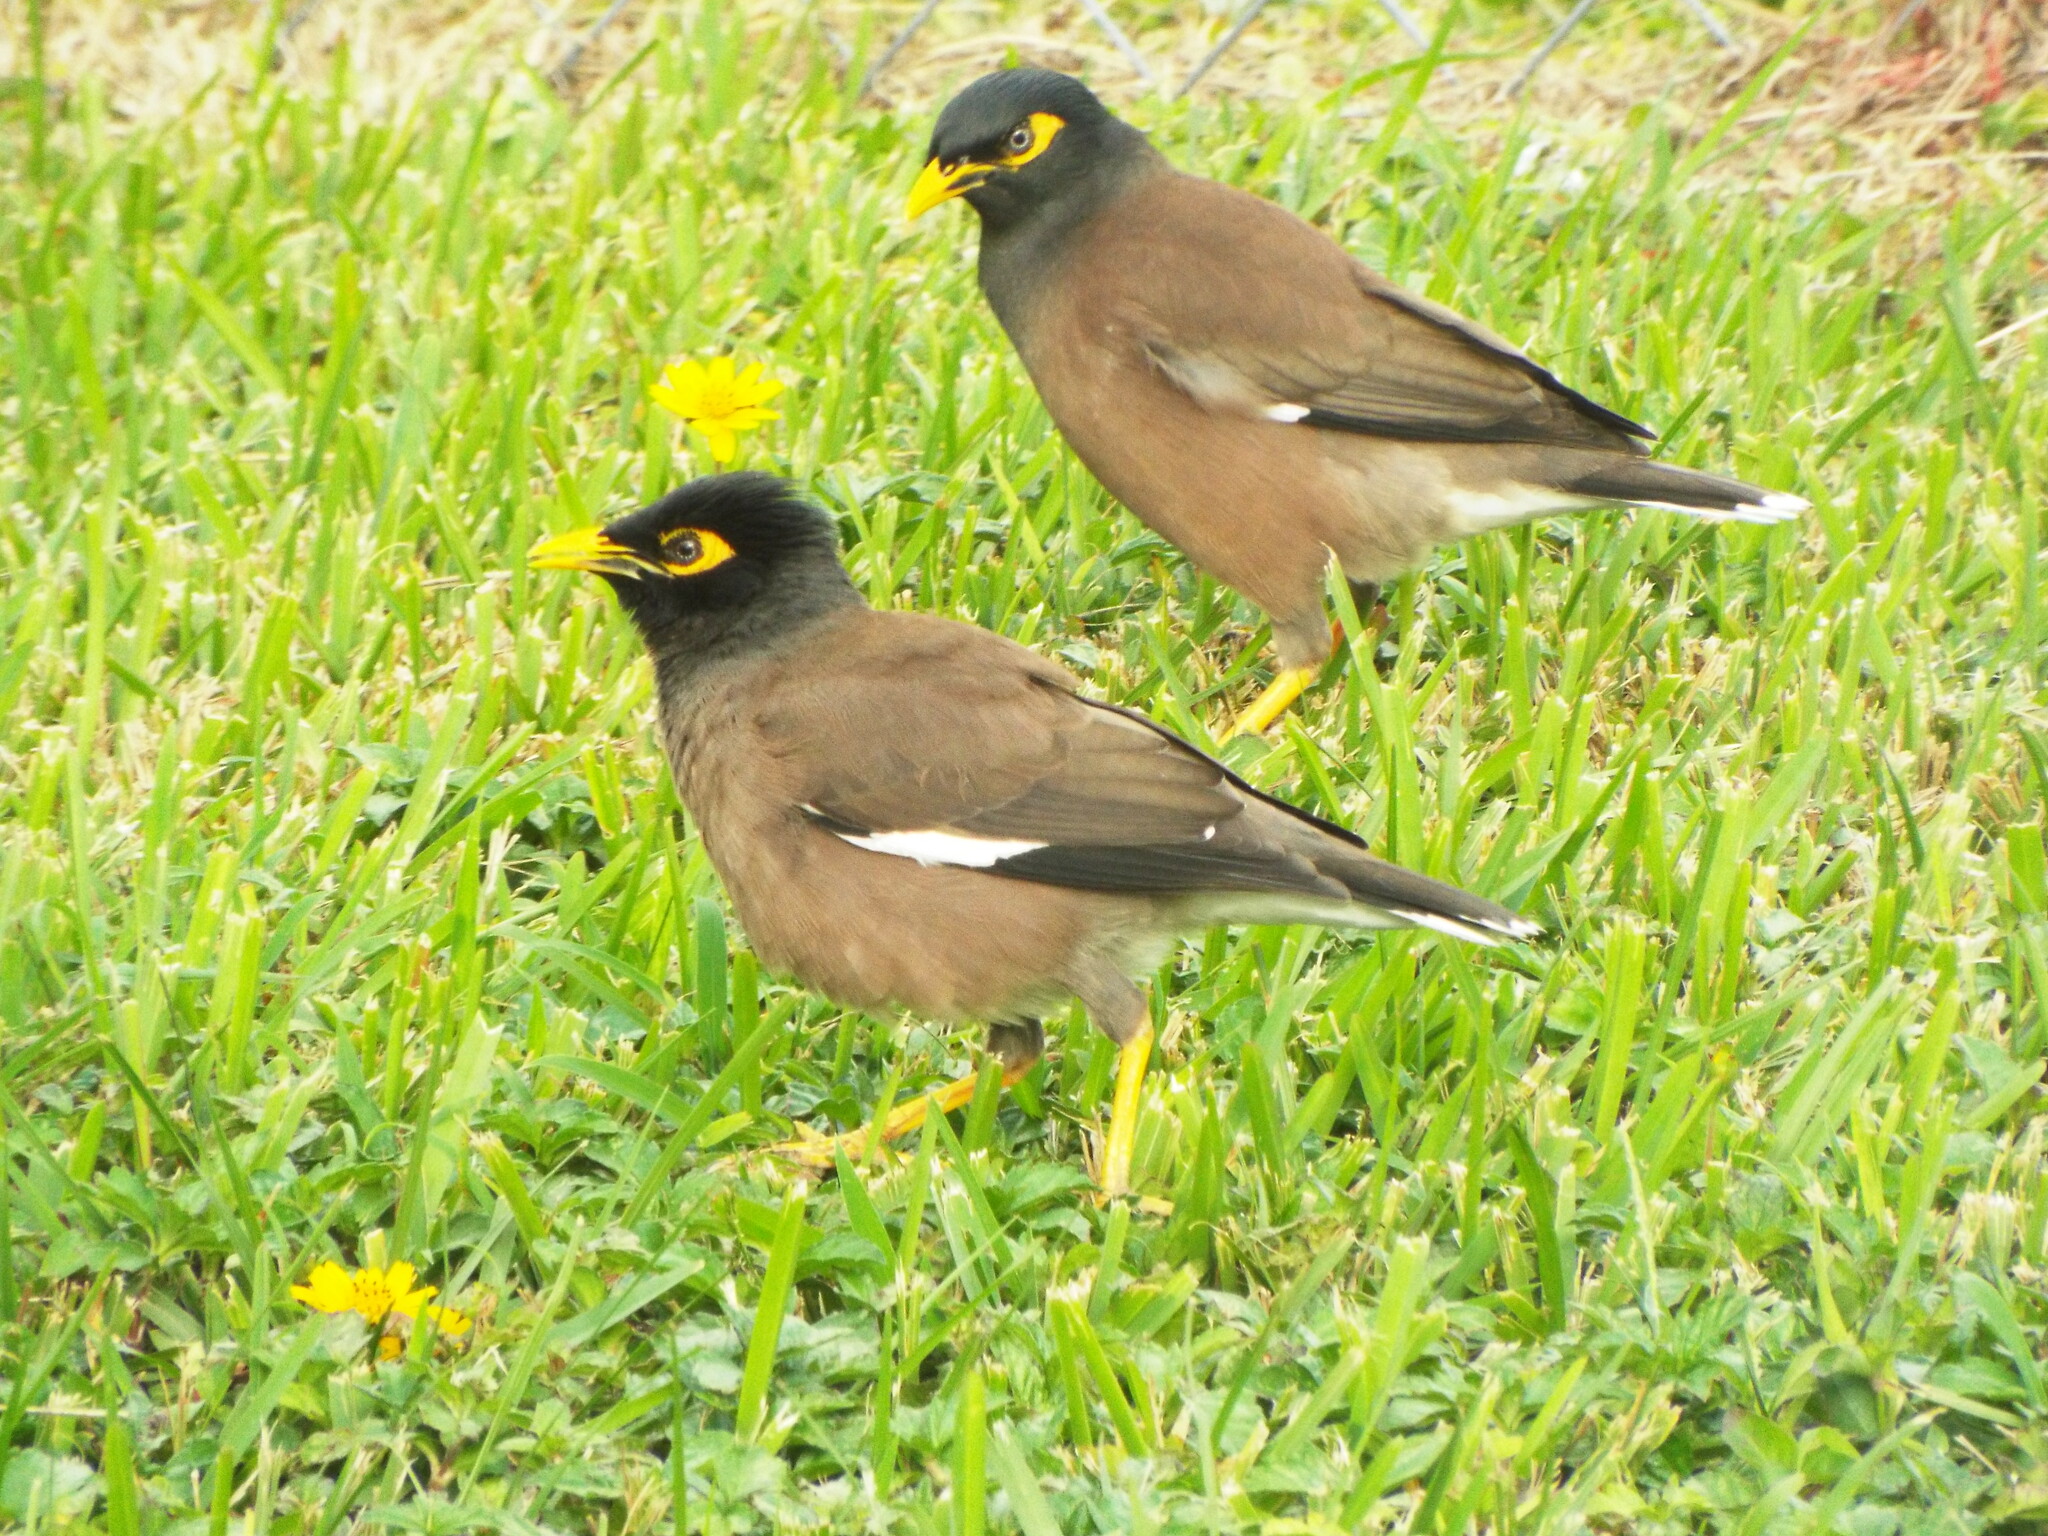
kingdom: Animalia
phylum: Chordata
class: Aves
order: Passeriformes
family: Sturnidae
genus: Acridotheres
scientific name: Acridotheres tristis
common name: Common myna
